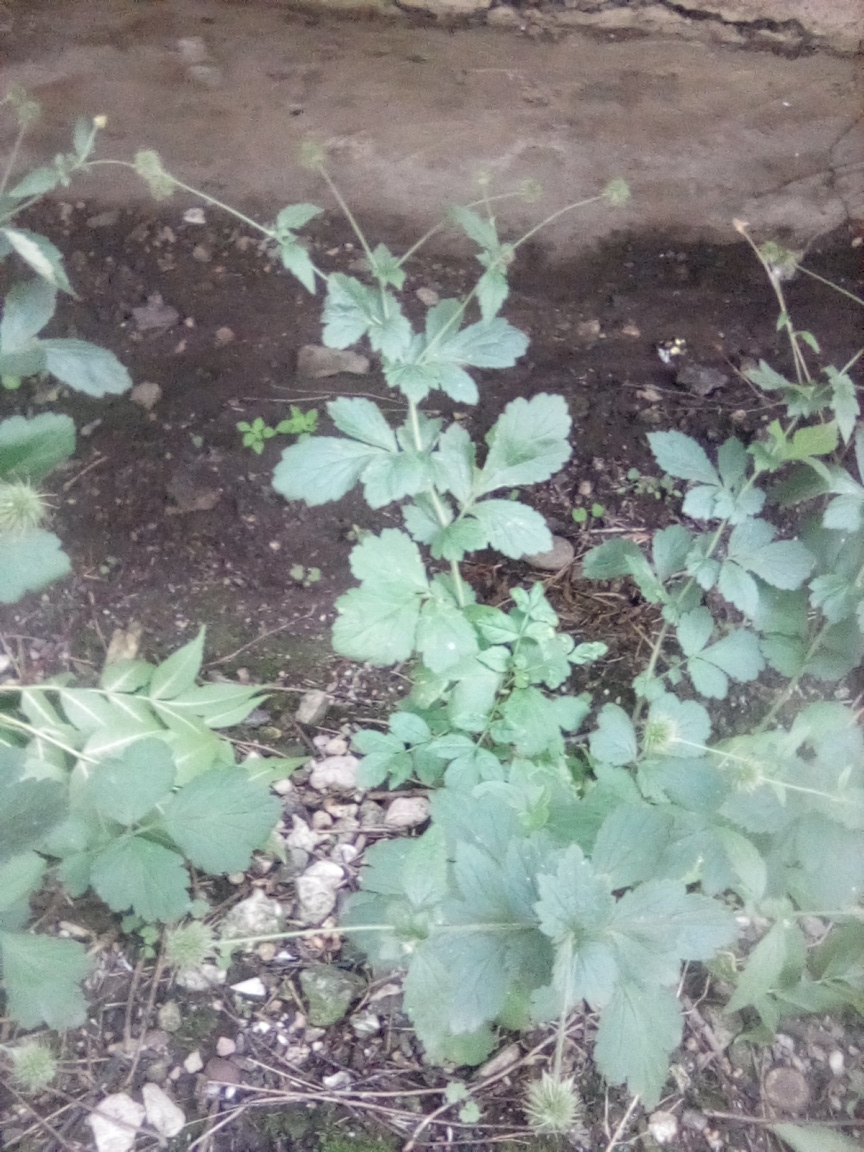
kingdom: Plantae
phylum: Tracheophyta
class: Magnoliopsida
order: Rosales
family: Rosaceae
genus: Geum
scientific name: Geum urbanum
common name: Wood avens
